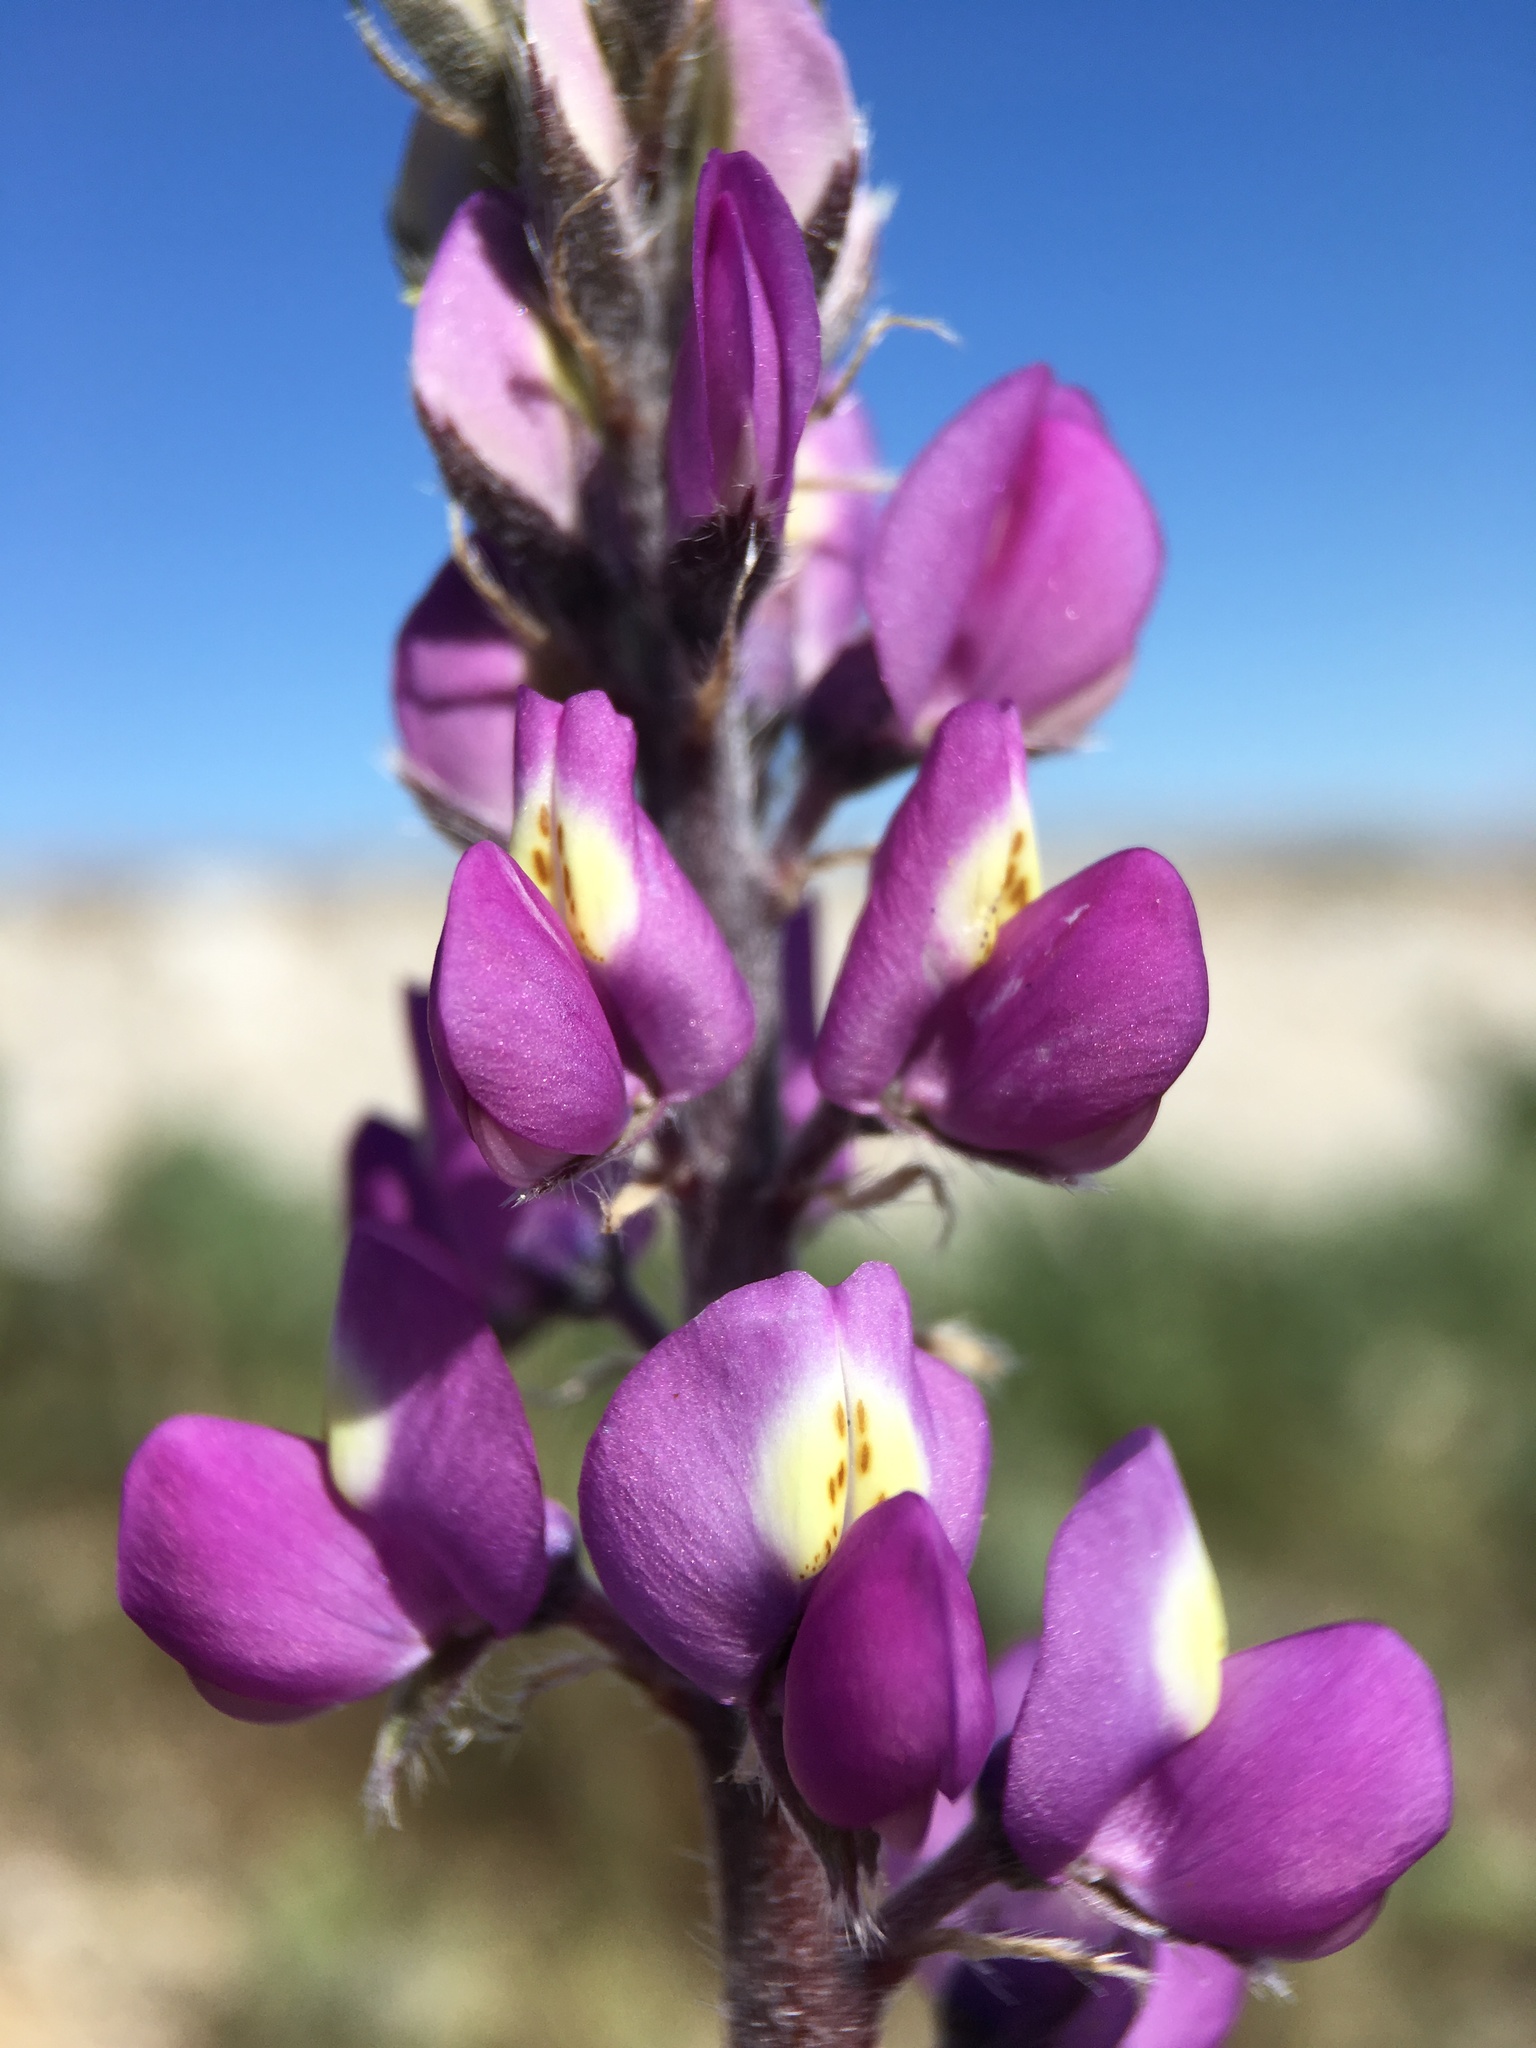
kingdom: Plantae
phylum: Tracheophyta
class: Magnoliopsida
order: Fabales
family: Fabaceae
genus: Lupinus
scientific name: Lupinus arizonicus
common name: Arizona lupine
